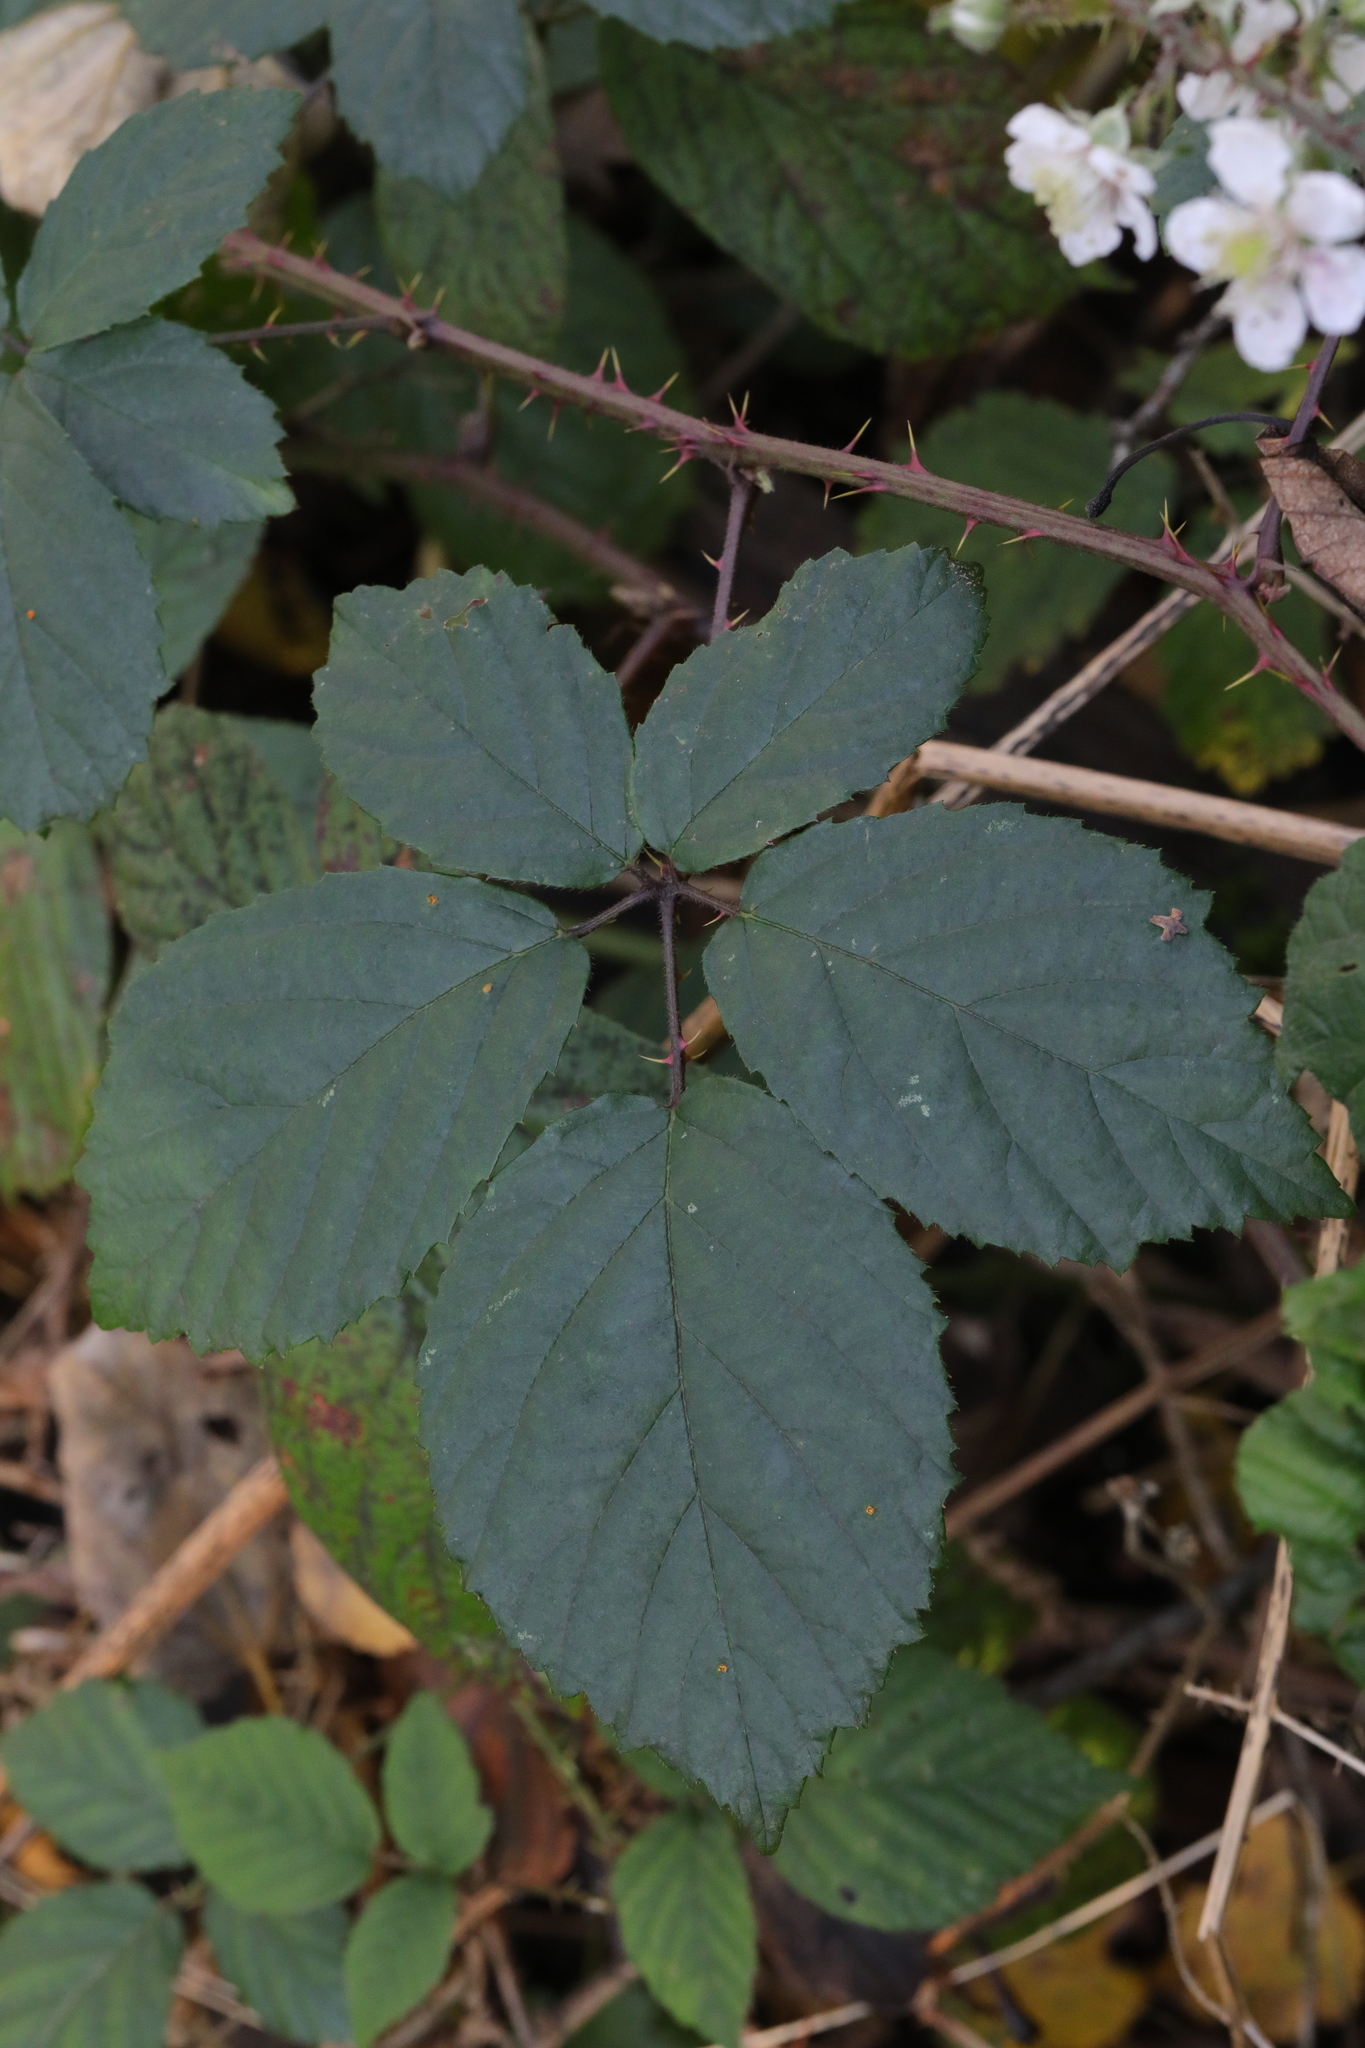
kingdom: Plantae
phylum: Tracheophyta
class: Magnoliopsida
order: Rosales
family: Rosaceae
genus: Rubus
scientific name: Rubus calvatus
